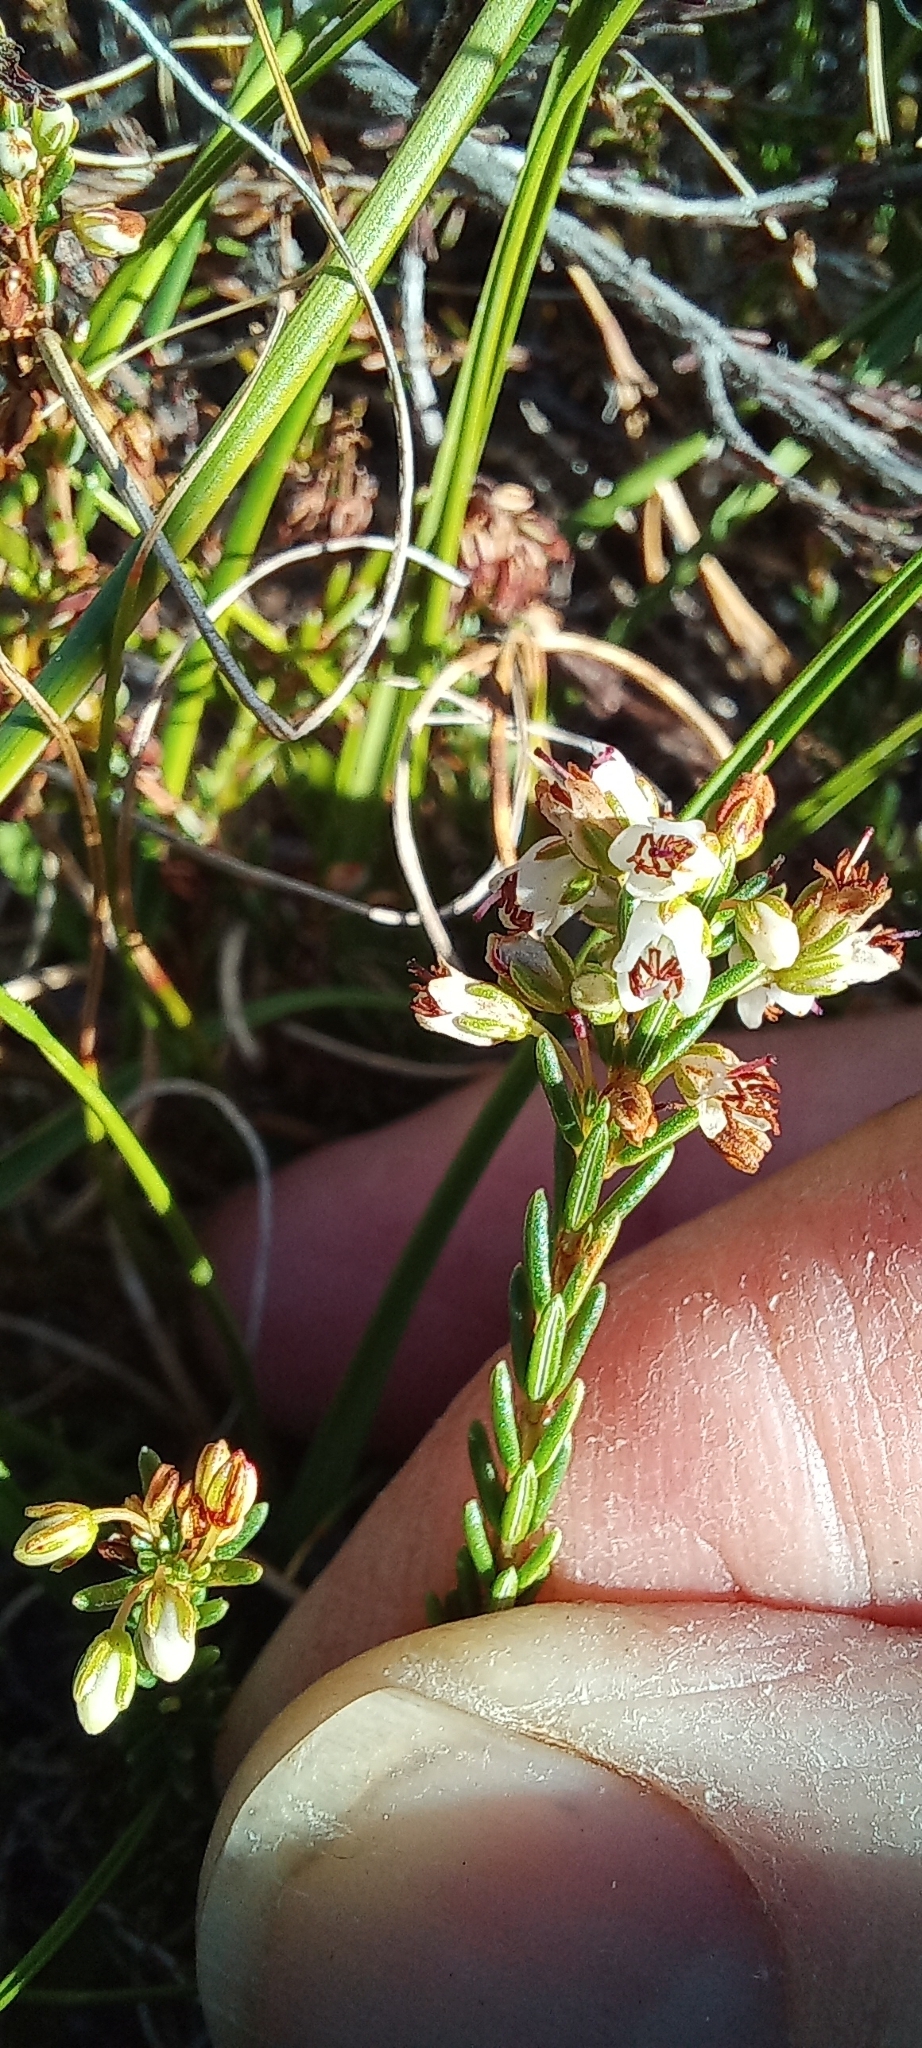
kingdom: Plantae
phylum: Tracheophyta
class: Magnoliopsida
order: Ericales
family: Ericaceae
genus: Erica
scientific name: Erica capillaris
